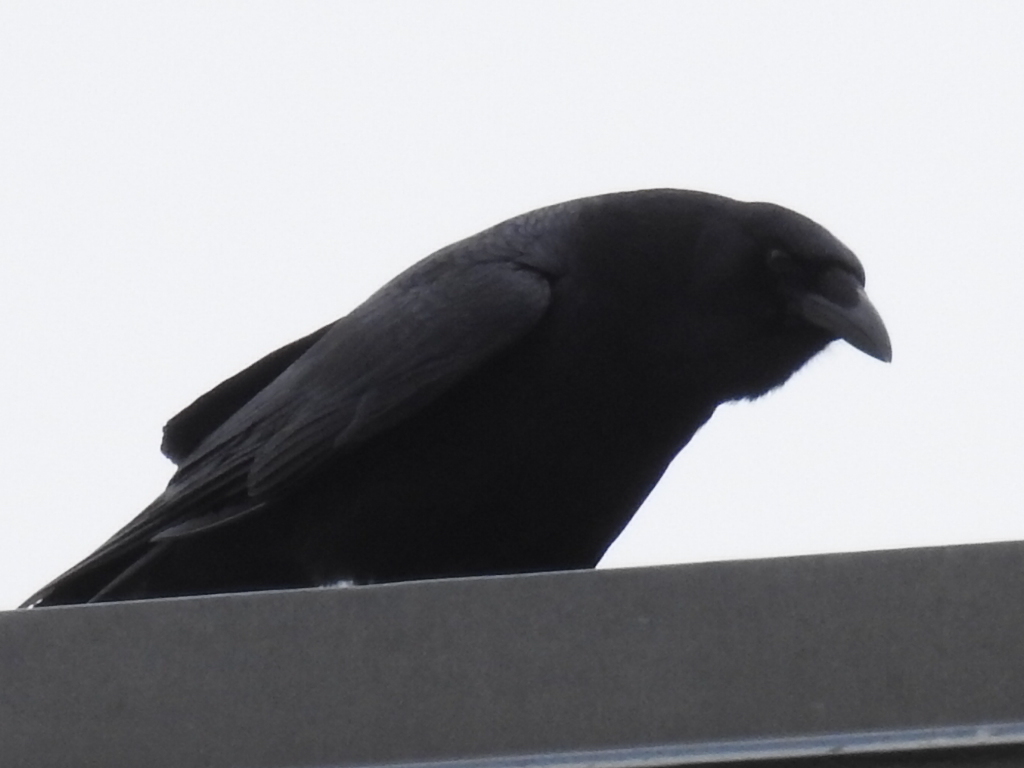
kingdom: Animalia
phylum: Chordata
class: Aves
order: Passeriformes
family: Corvidae
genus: Corvus
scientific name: Corvus brachyrhynchos
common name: American crow
